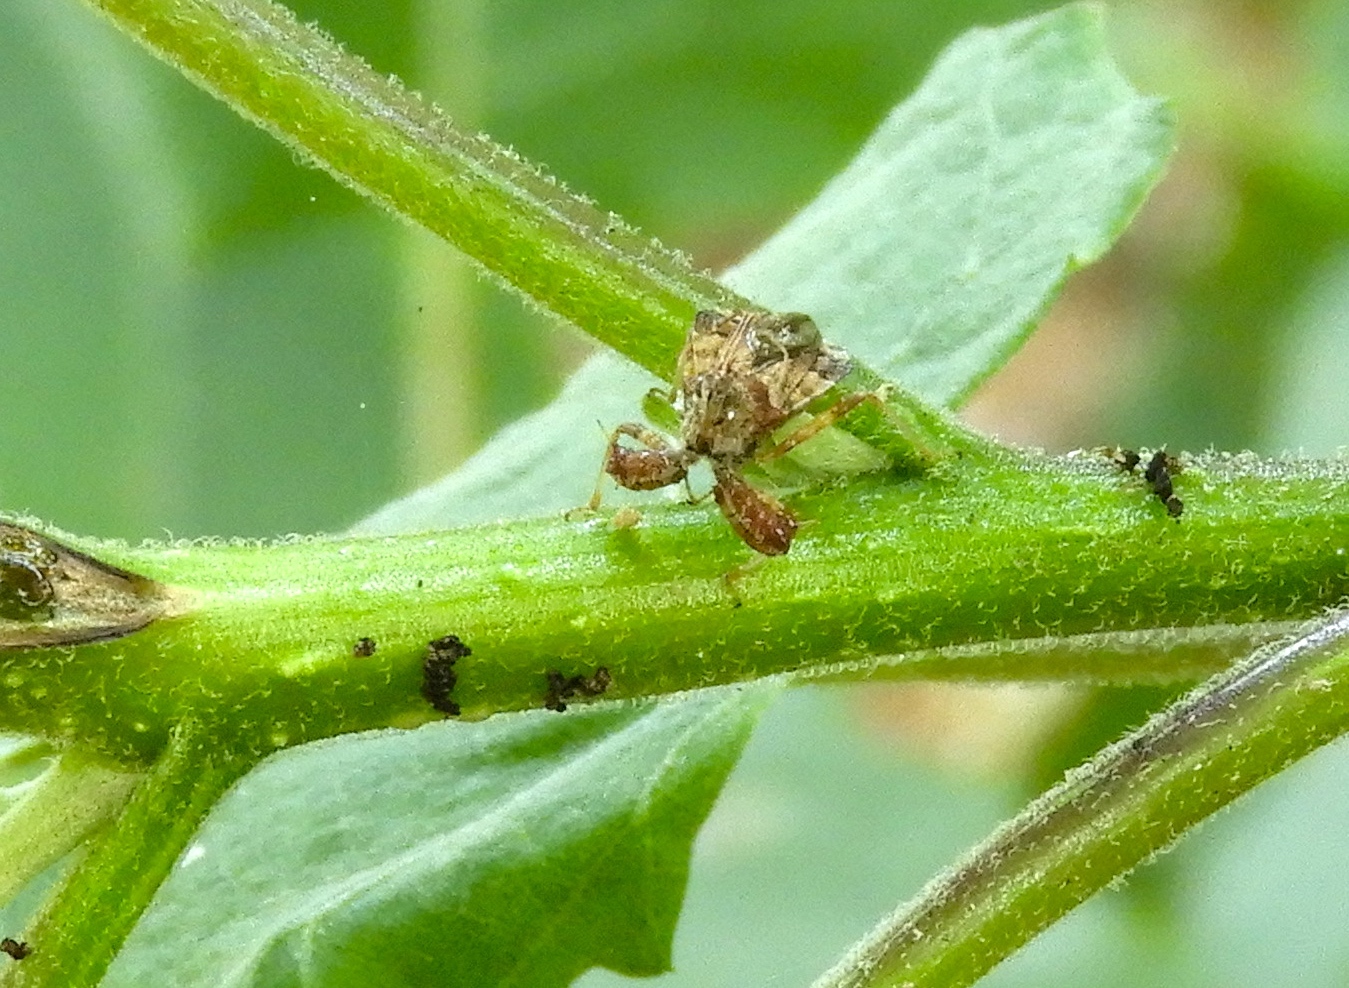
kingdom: Animalia
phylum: Arthropoda
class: Insecta
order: Hemiptera
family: Reduviidae
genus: Sinea
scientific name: Sinea
